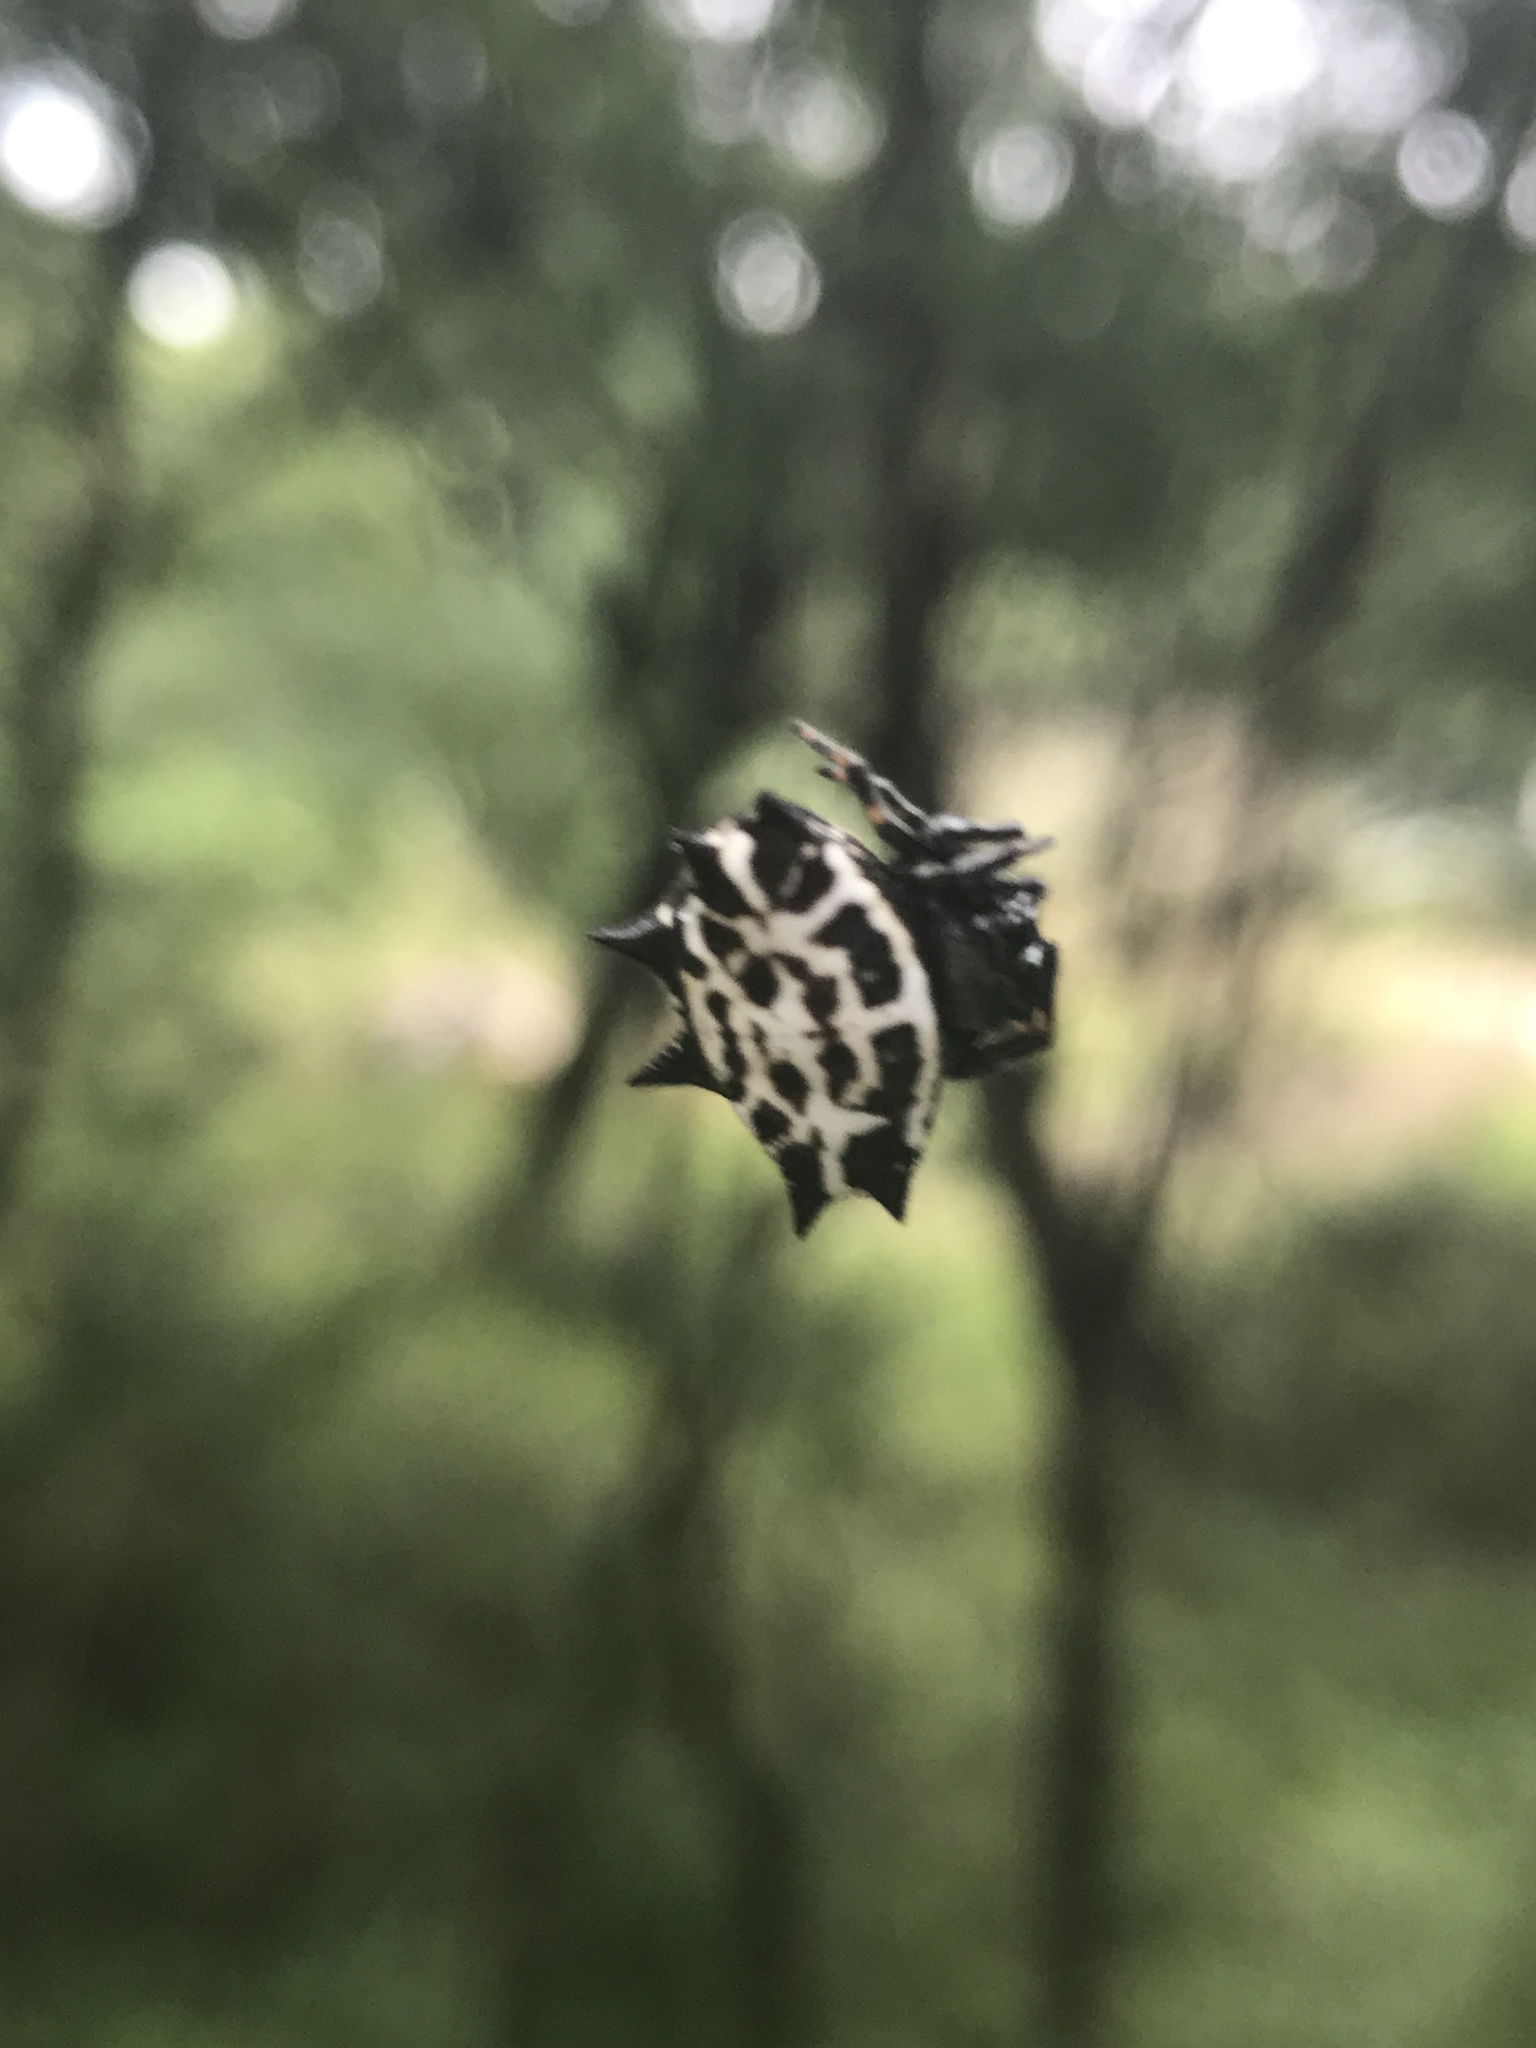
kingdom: Animalia
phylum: Arthropoda
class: Arachnida
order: Araneae
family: Araneidae
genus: Gasteracantha
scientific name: Gasteracantha cancriformis
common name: Orb weavers
